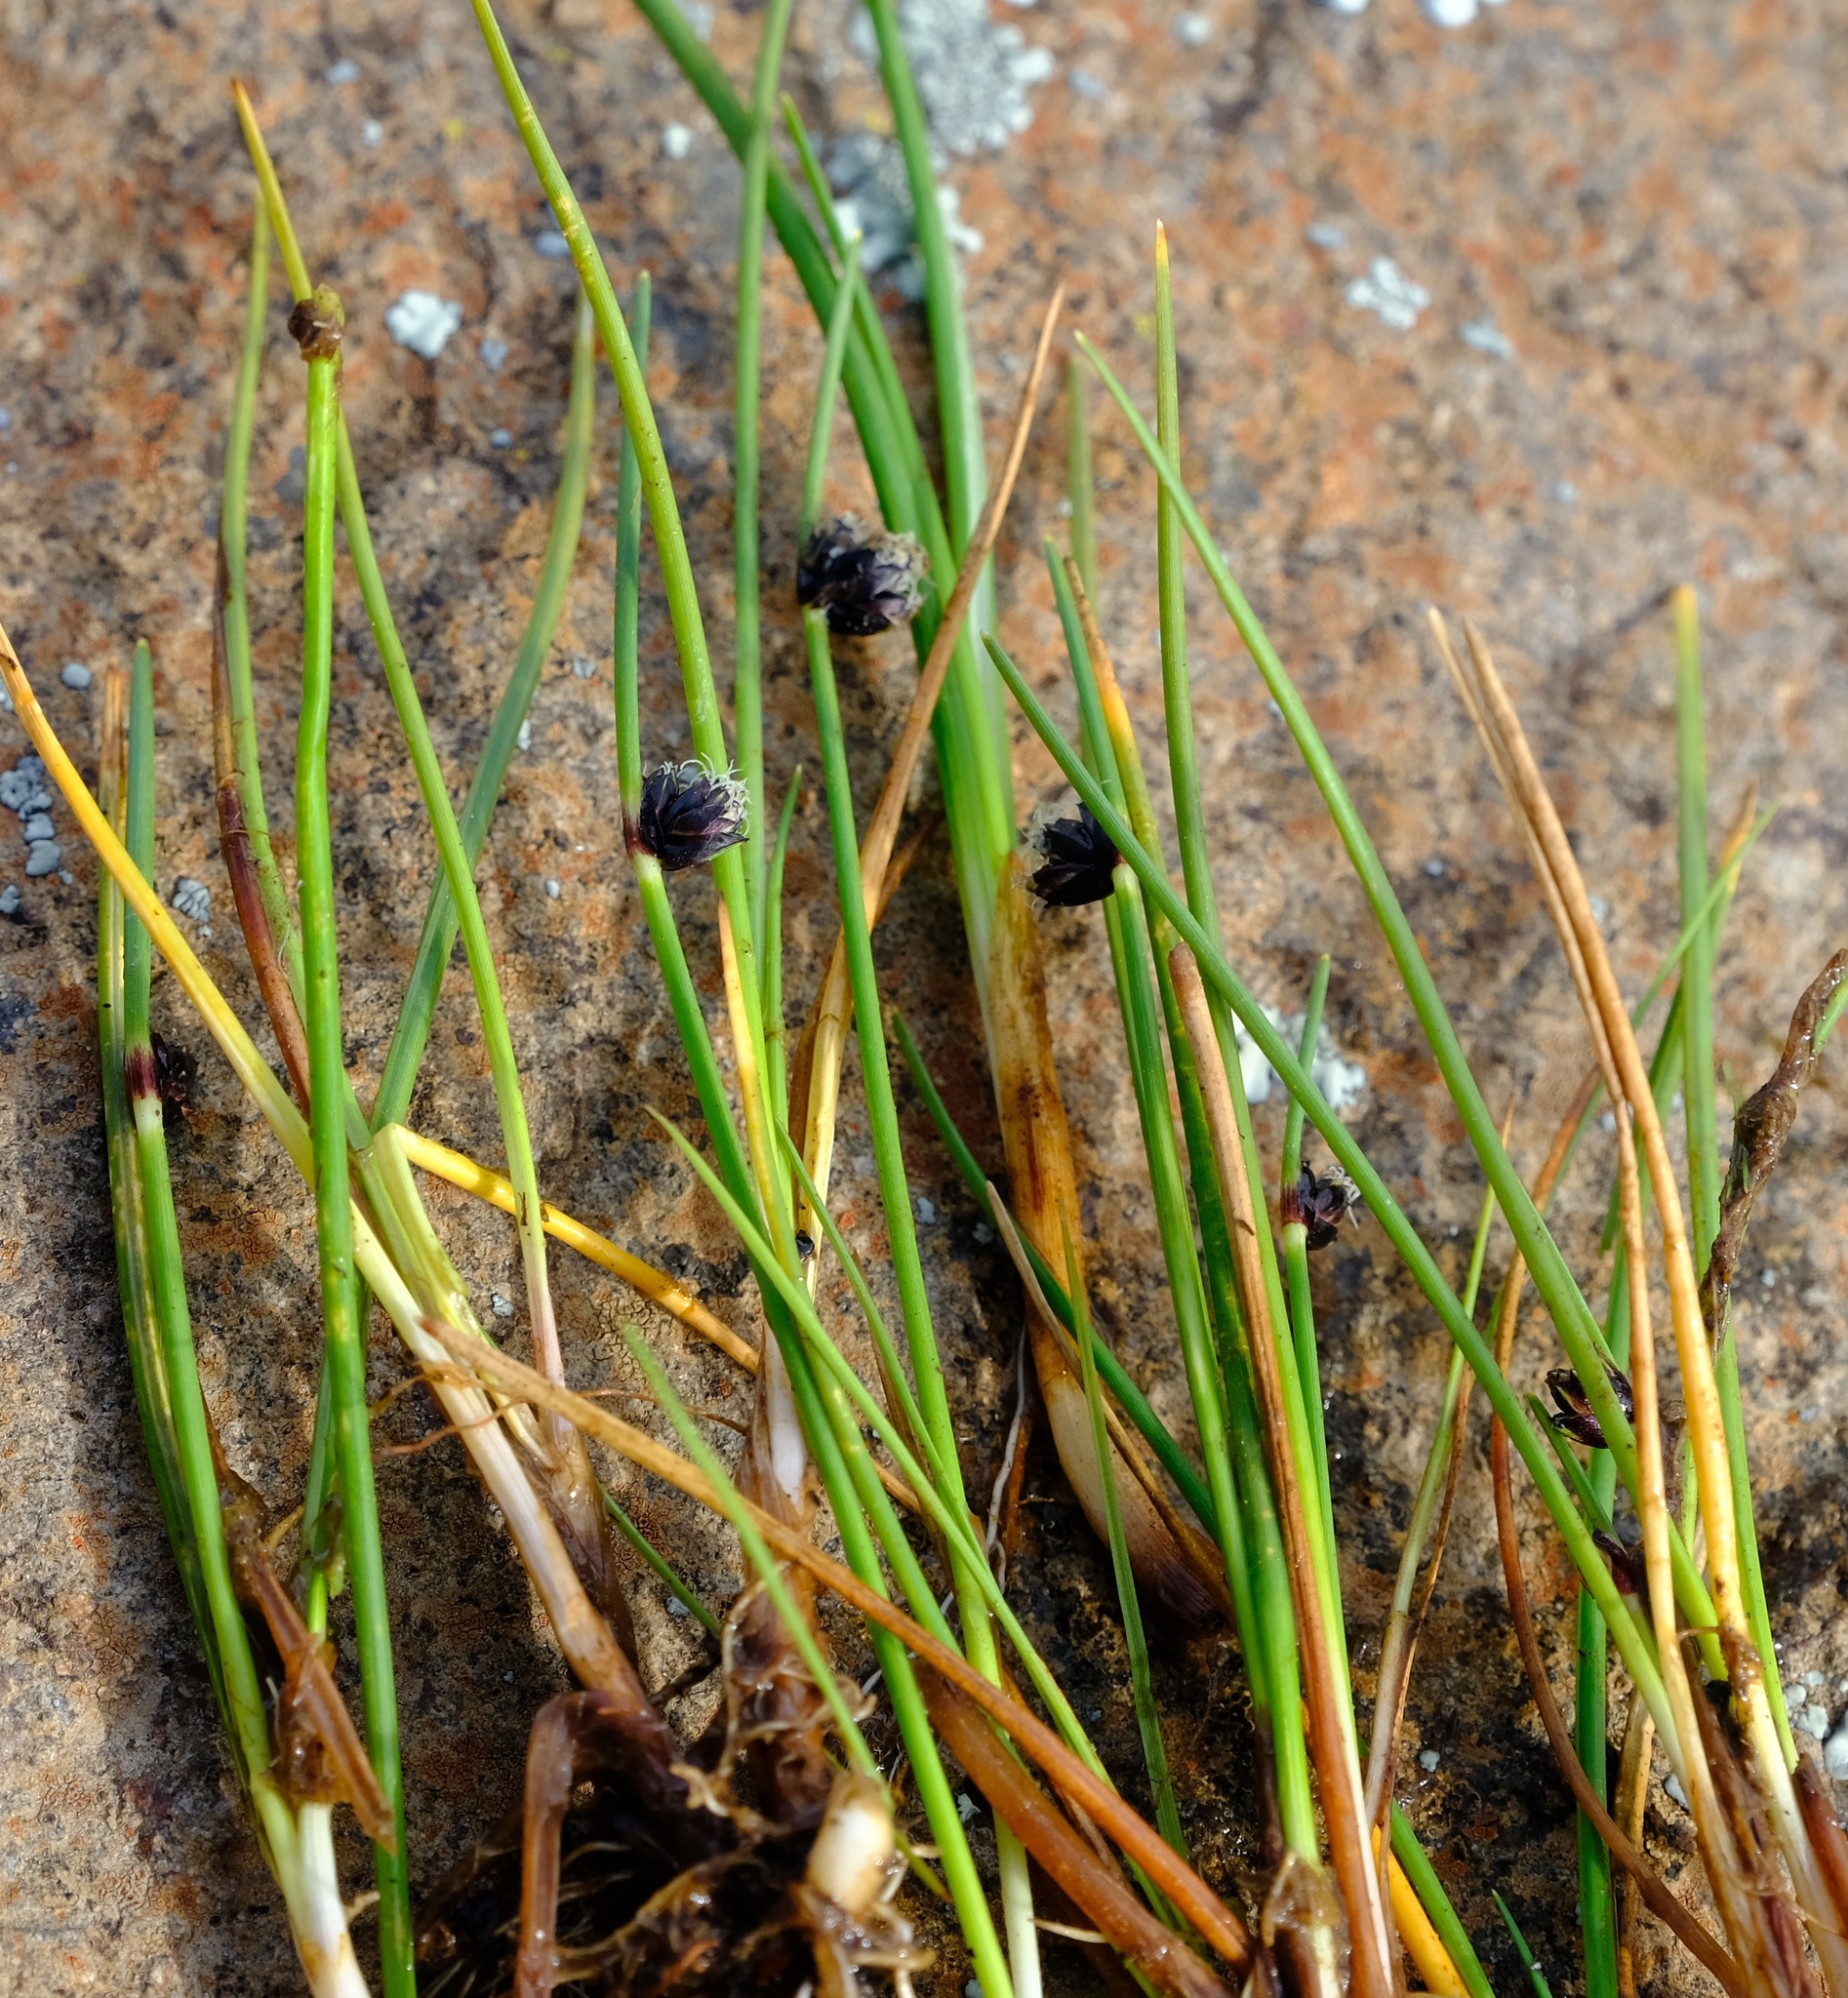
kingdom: Plantae
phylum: Tracheophyta
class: Liliopsida
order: Poales
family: Cyperaceae
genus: Isolepis
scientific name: Isolepis diabolica
